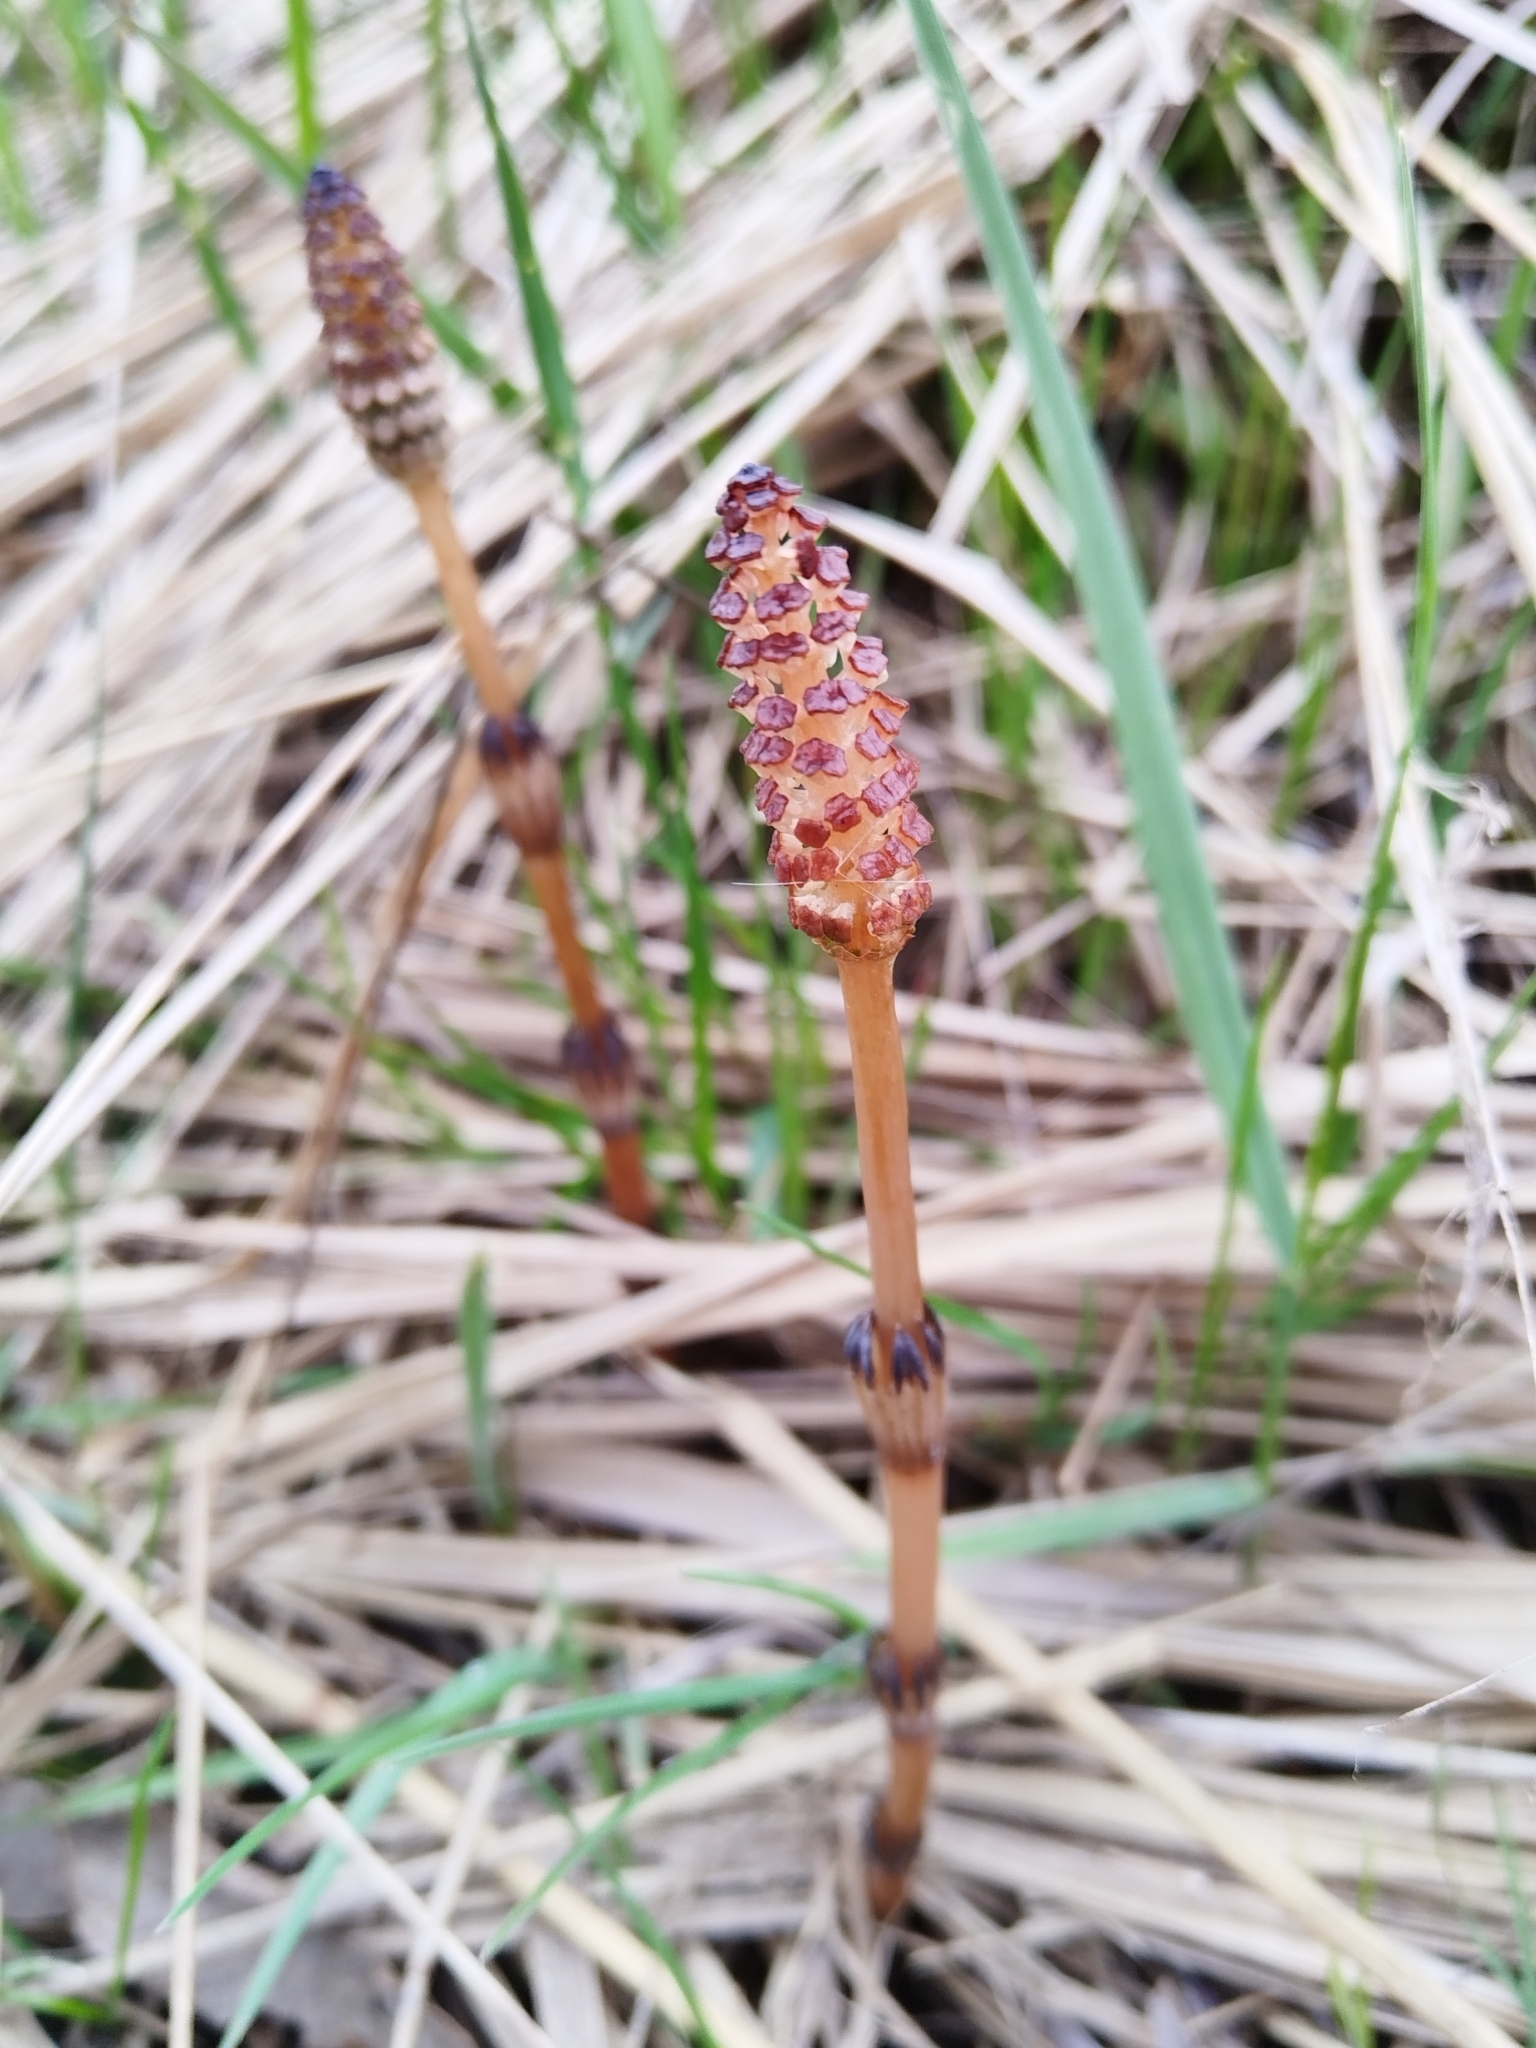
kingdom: Plantae
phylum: Tracheophyta
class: Polypodiopsida
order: Equisetales
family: Equisetaceae
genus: Equisetum
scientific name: Equisetum arvense
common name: Field horsetail
